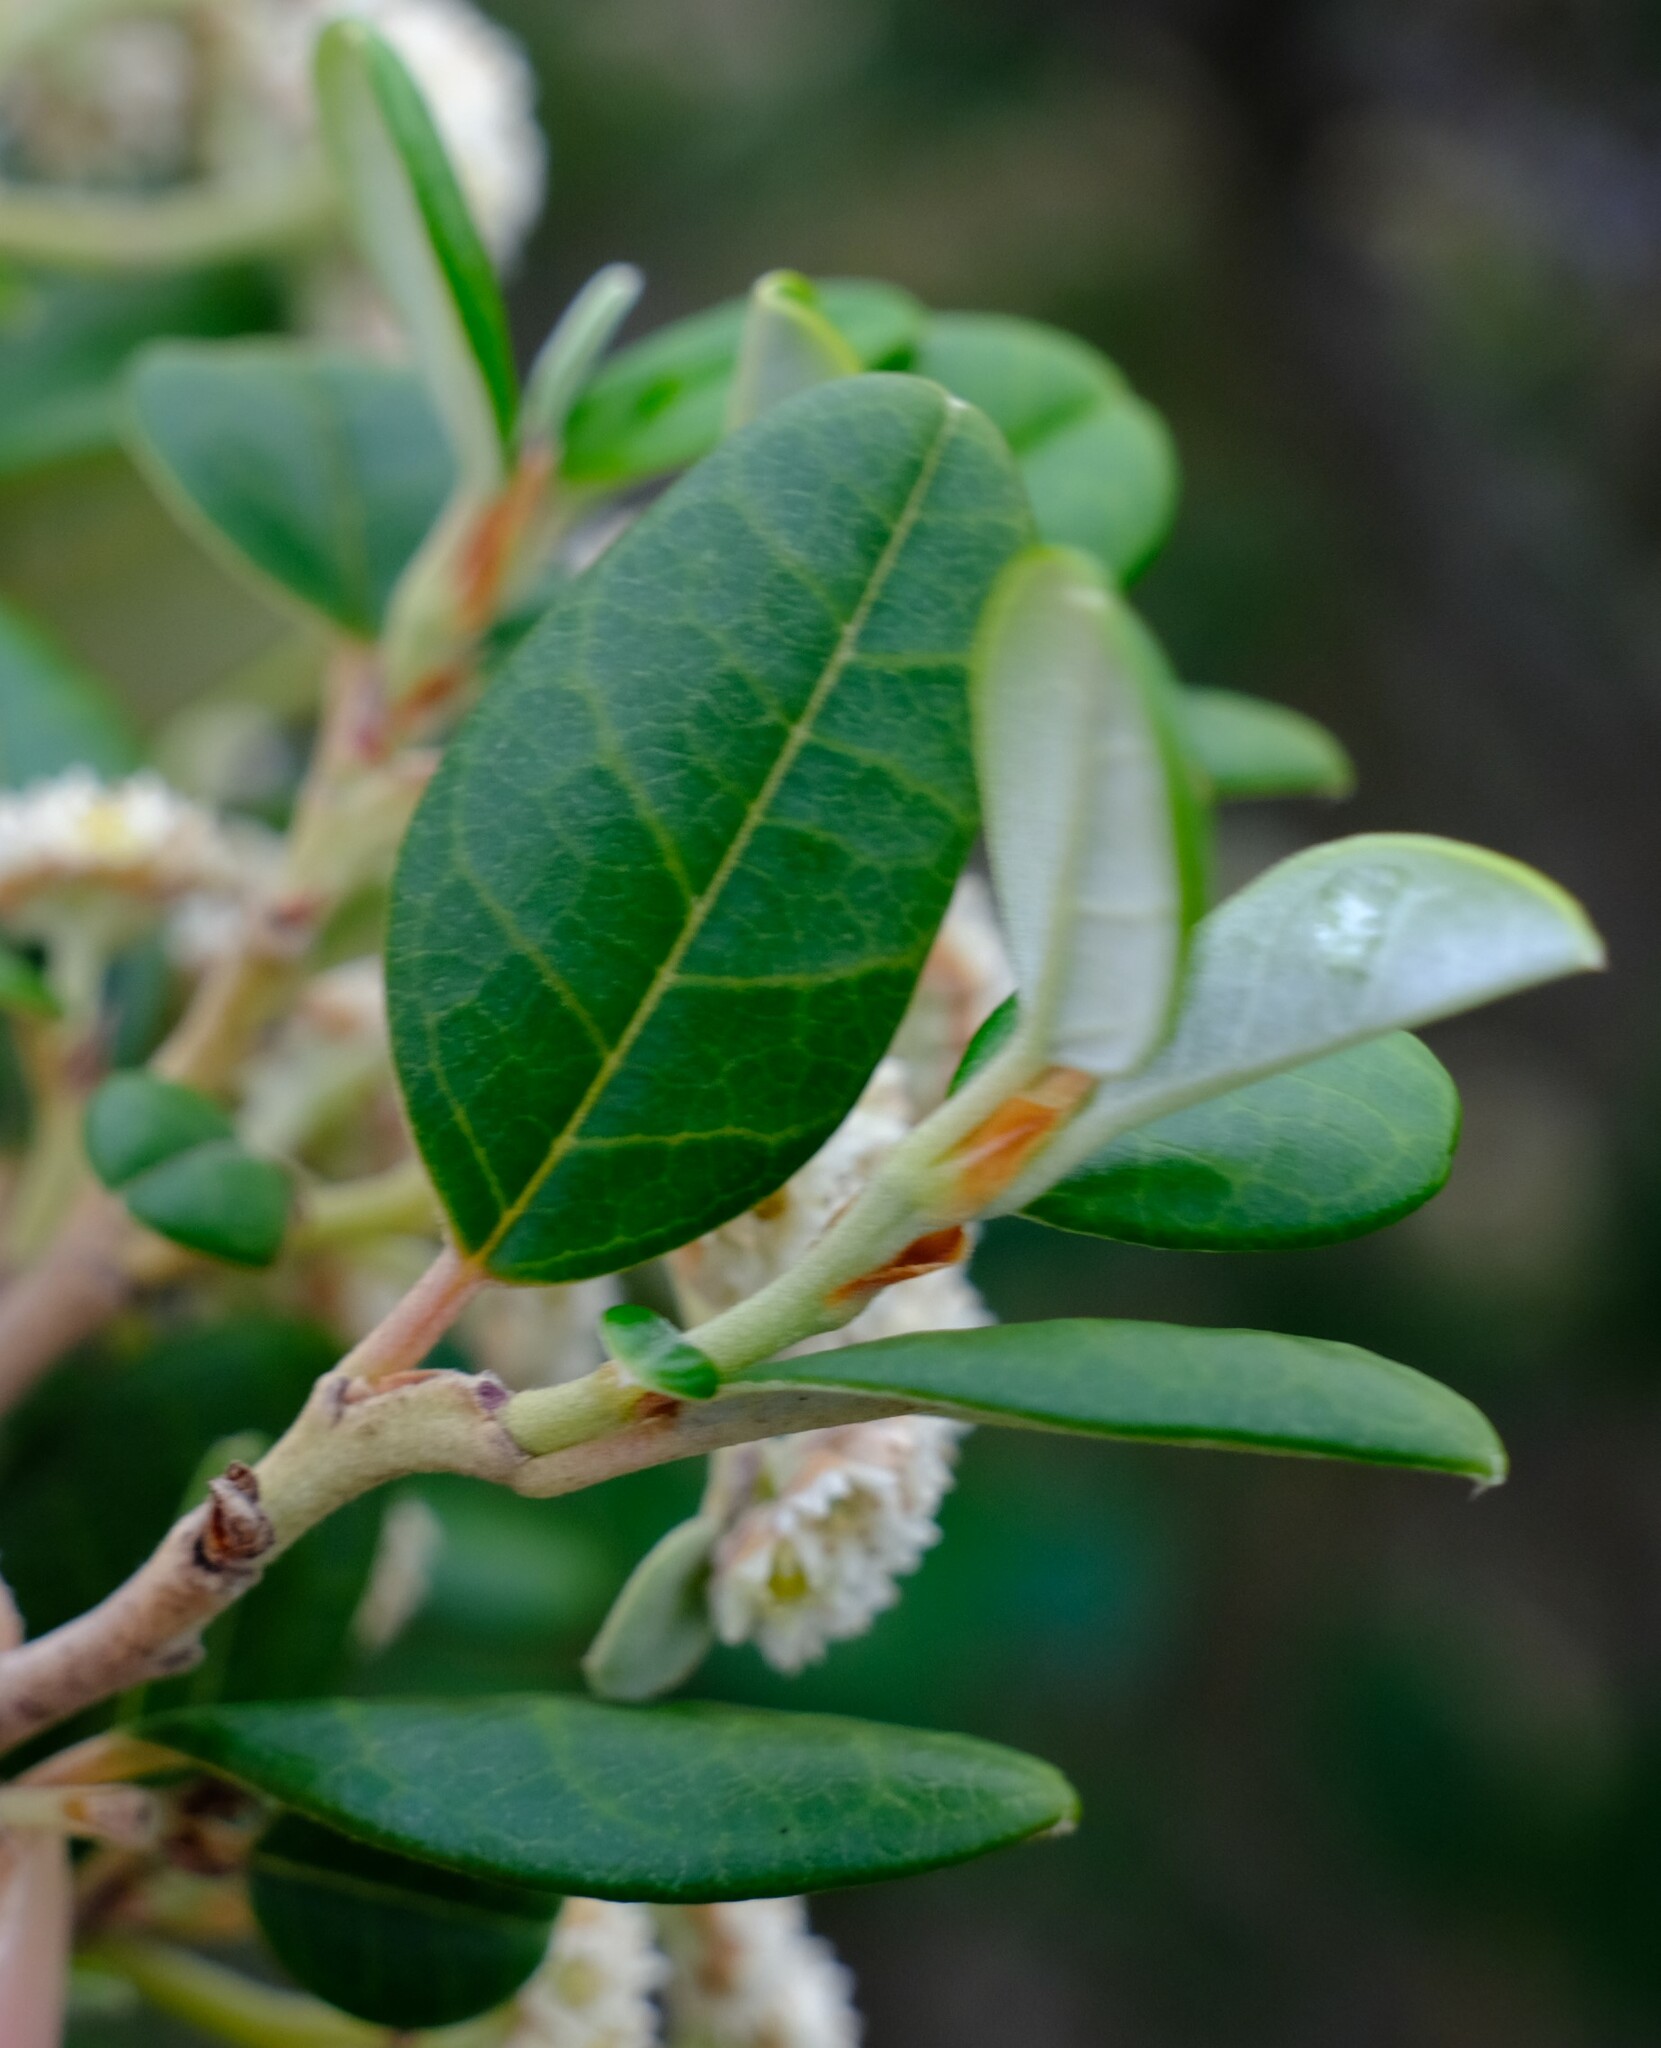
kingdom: Plantae
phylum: Tracheophyta
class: Magnoliopsida
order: Rosales
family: Rhamnaceae
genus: Spyridium
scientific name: Spyridium globulosum
